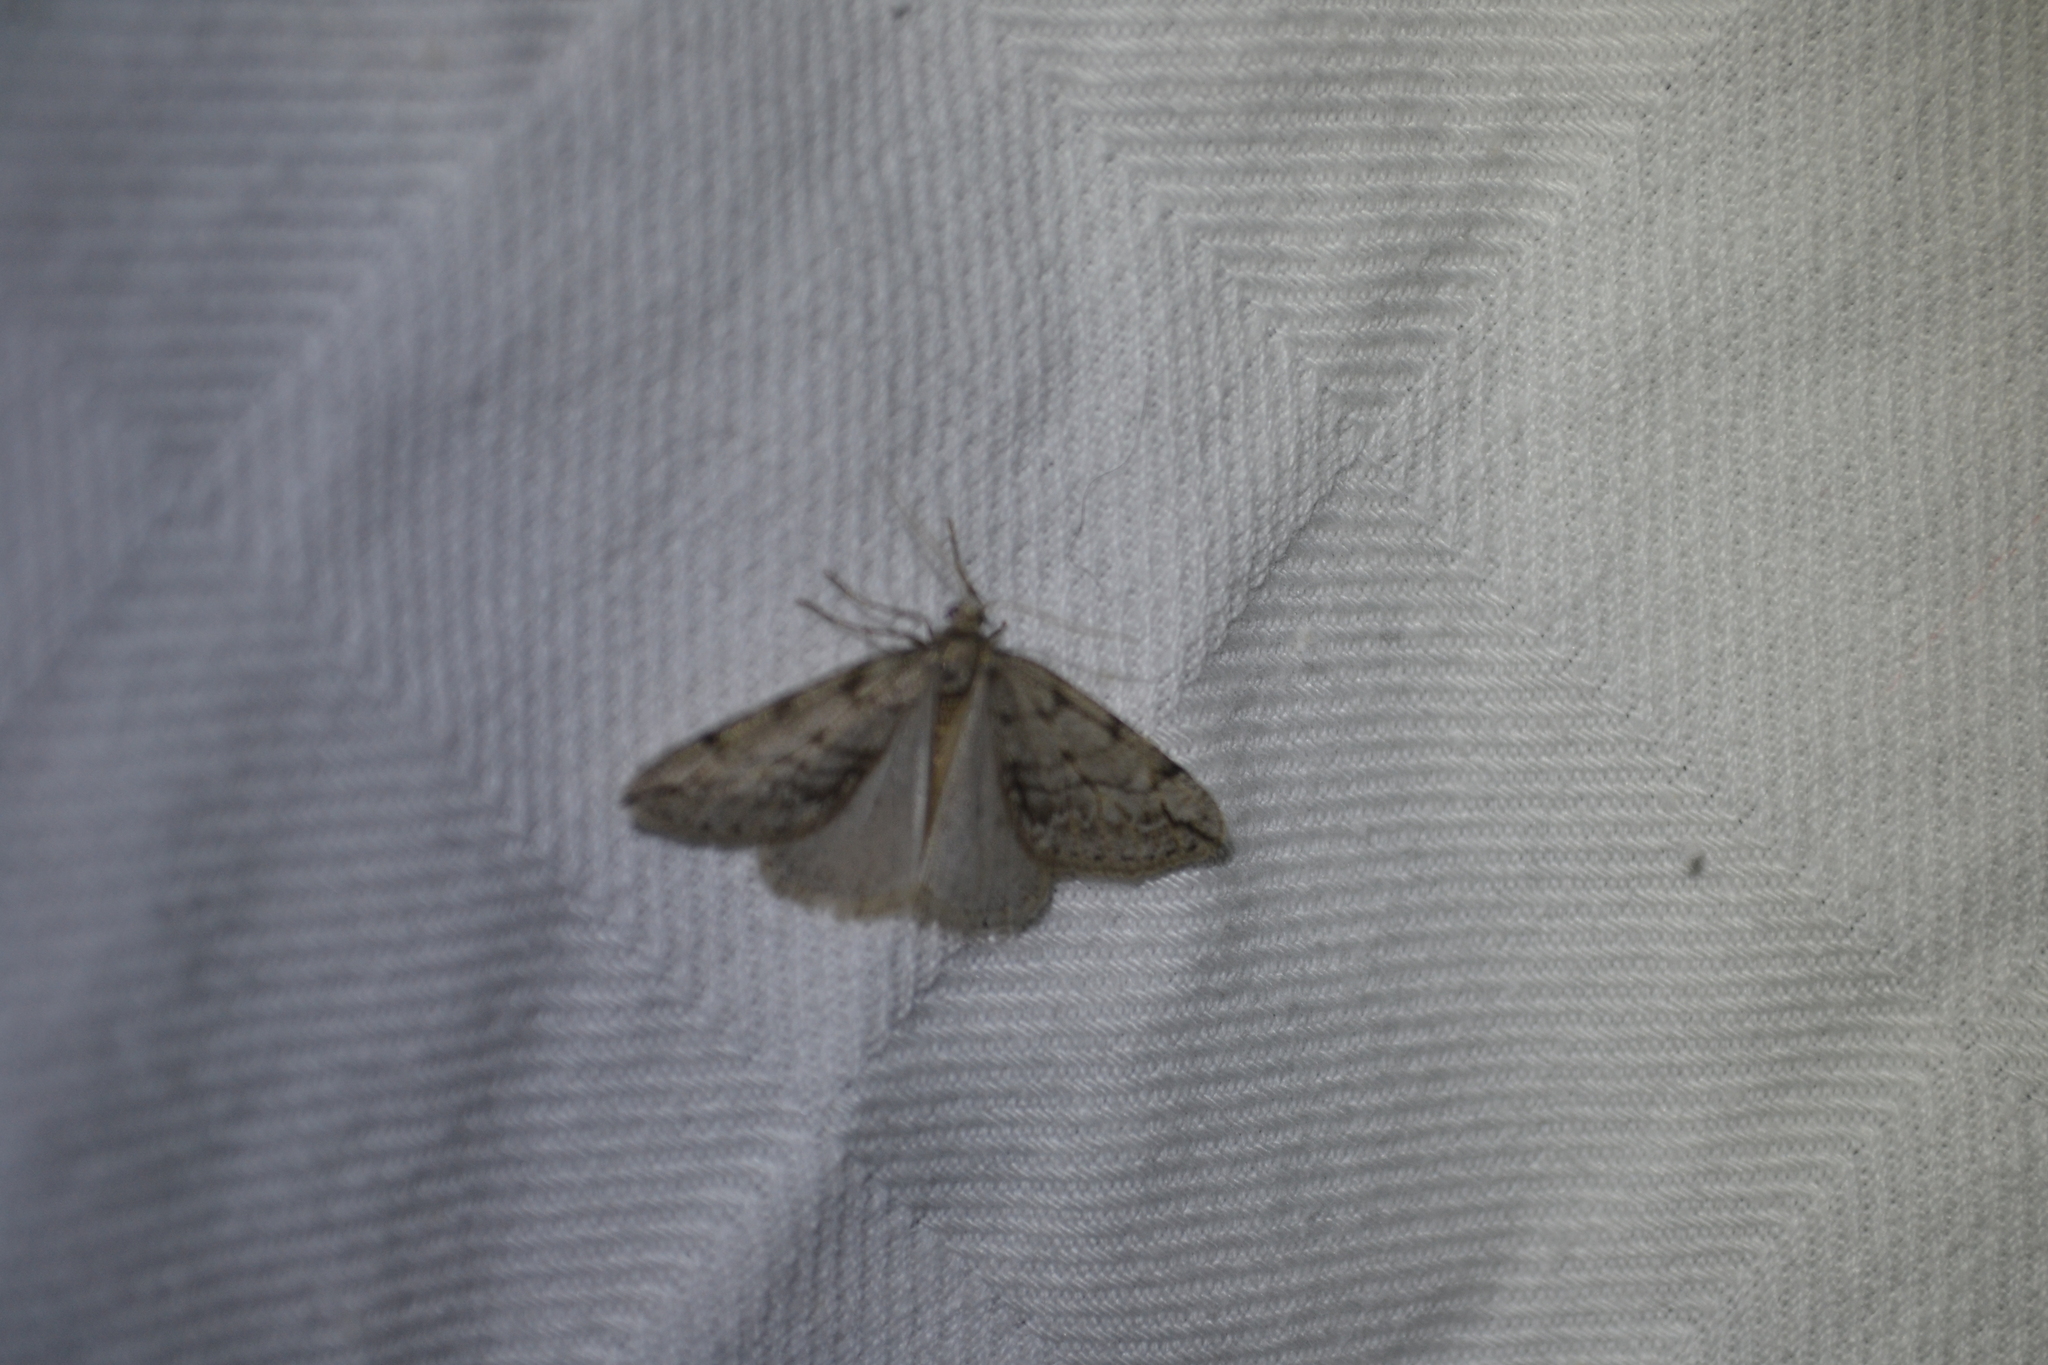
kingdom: Animalia
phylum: Arthropoda
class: Insecta
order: Lepidoptera
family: Geometridae
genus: Paleacrita
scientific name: Paleacrita vernata
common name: Spring cankerworm
